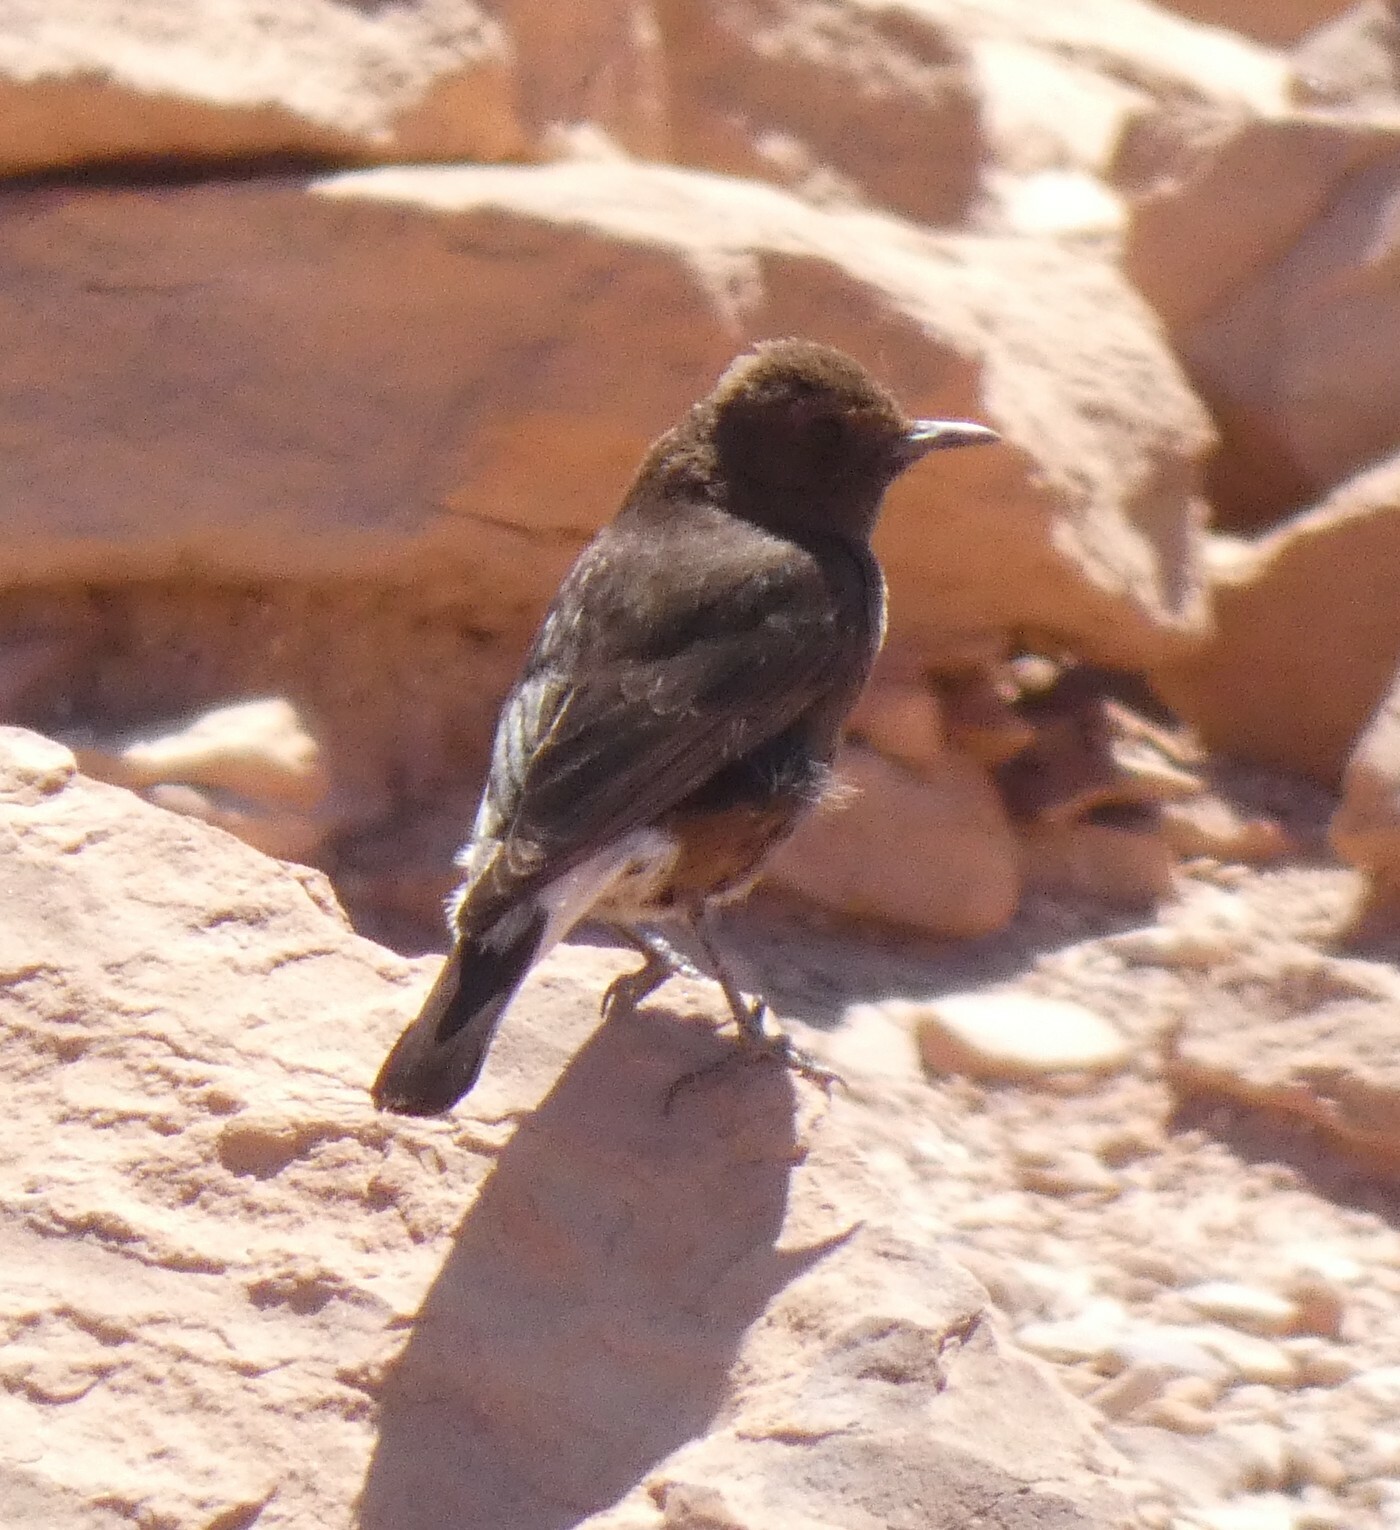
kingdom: Animalia
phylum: Chordata
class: Aves
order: Passeriformes
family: Muscicapidae
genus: Oenanthe
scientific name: Oenanthe leucura
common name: Black wheatear
